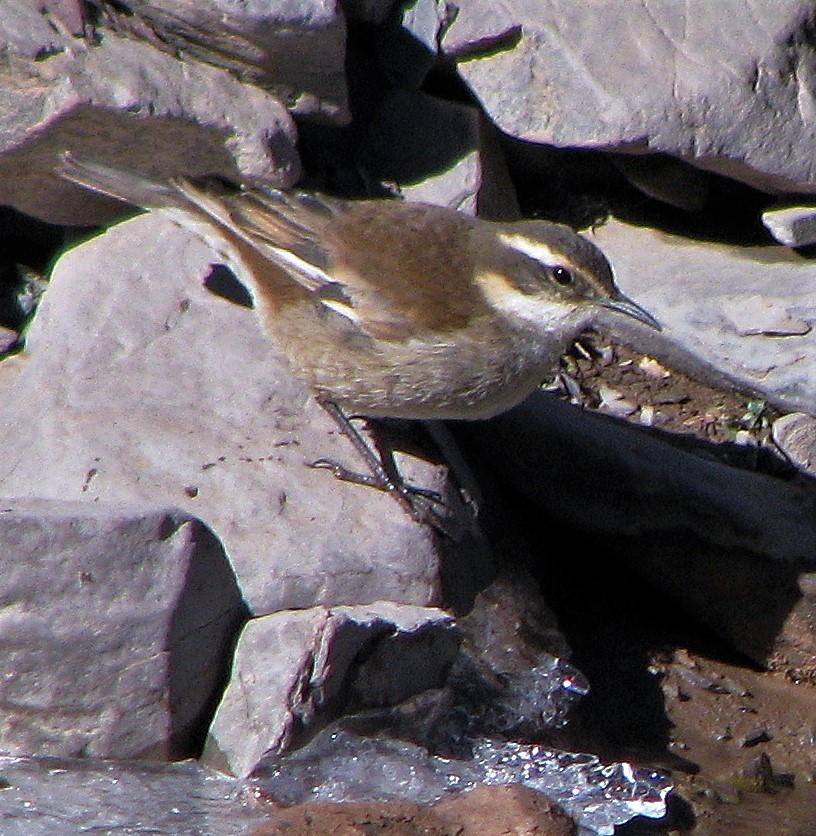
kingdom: Animalia
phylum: Chordata
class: Aves
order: Passeriformes
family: Furnariidae
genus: Cinclodes
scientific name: Cinclodes fuscus
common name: Buff-winged cinclodes
